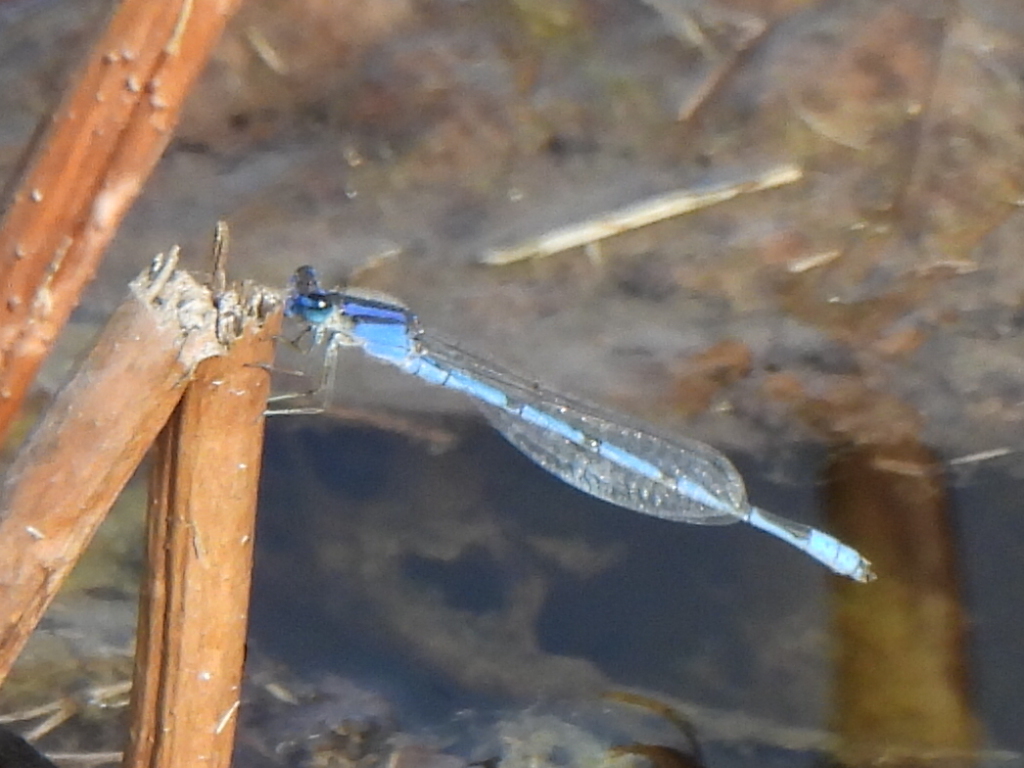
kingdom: Animalia
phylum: Arthropoda
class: Insecta
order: Odonata
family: Coenagrionidae
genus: Enallagma
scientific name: Enallagma civile
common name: Damselfly
